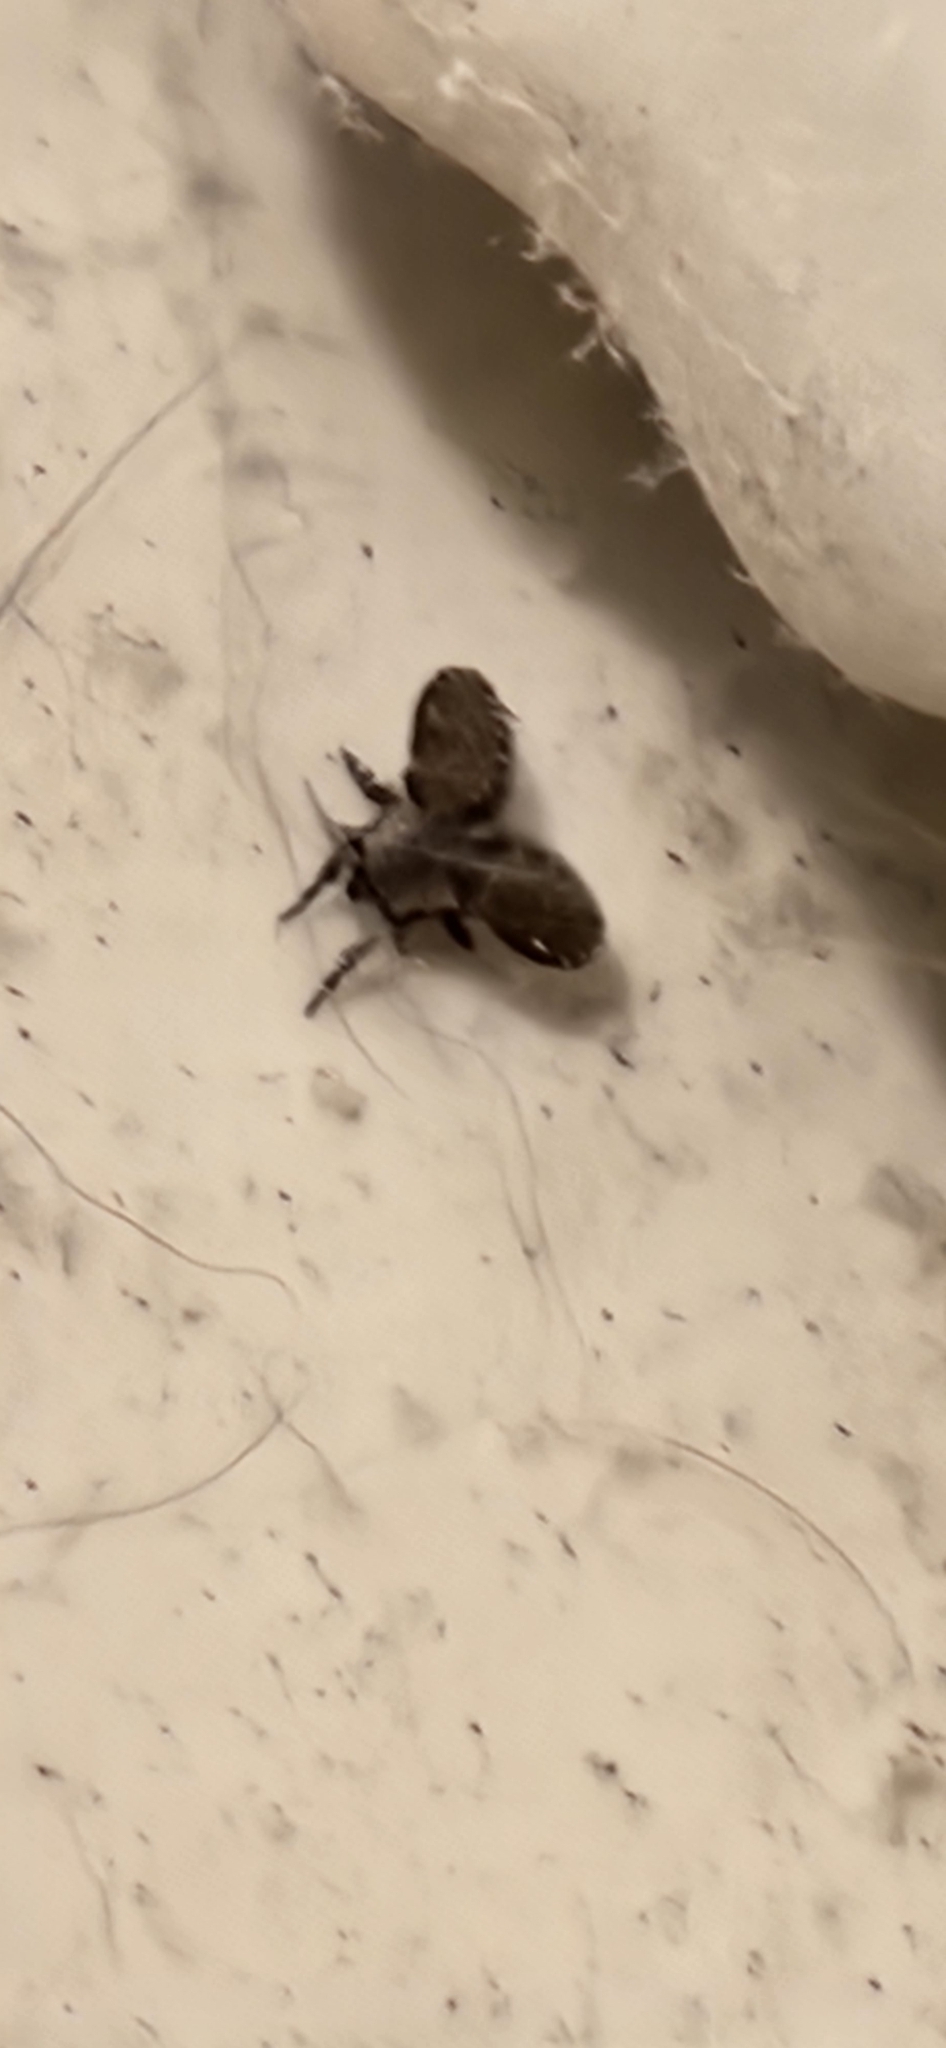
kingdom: Animalia
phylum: Arthropoda
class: Insecta
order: Diptera
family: Psychodidae
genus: Clogmia
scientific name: Clogmia albipunctatus
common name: White-spotted moth fly
